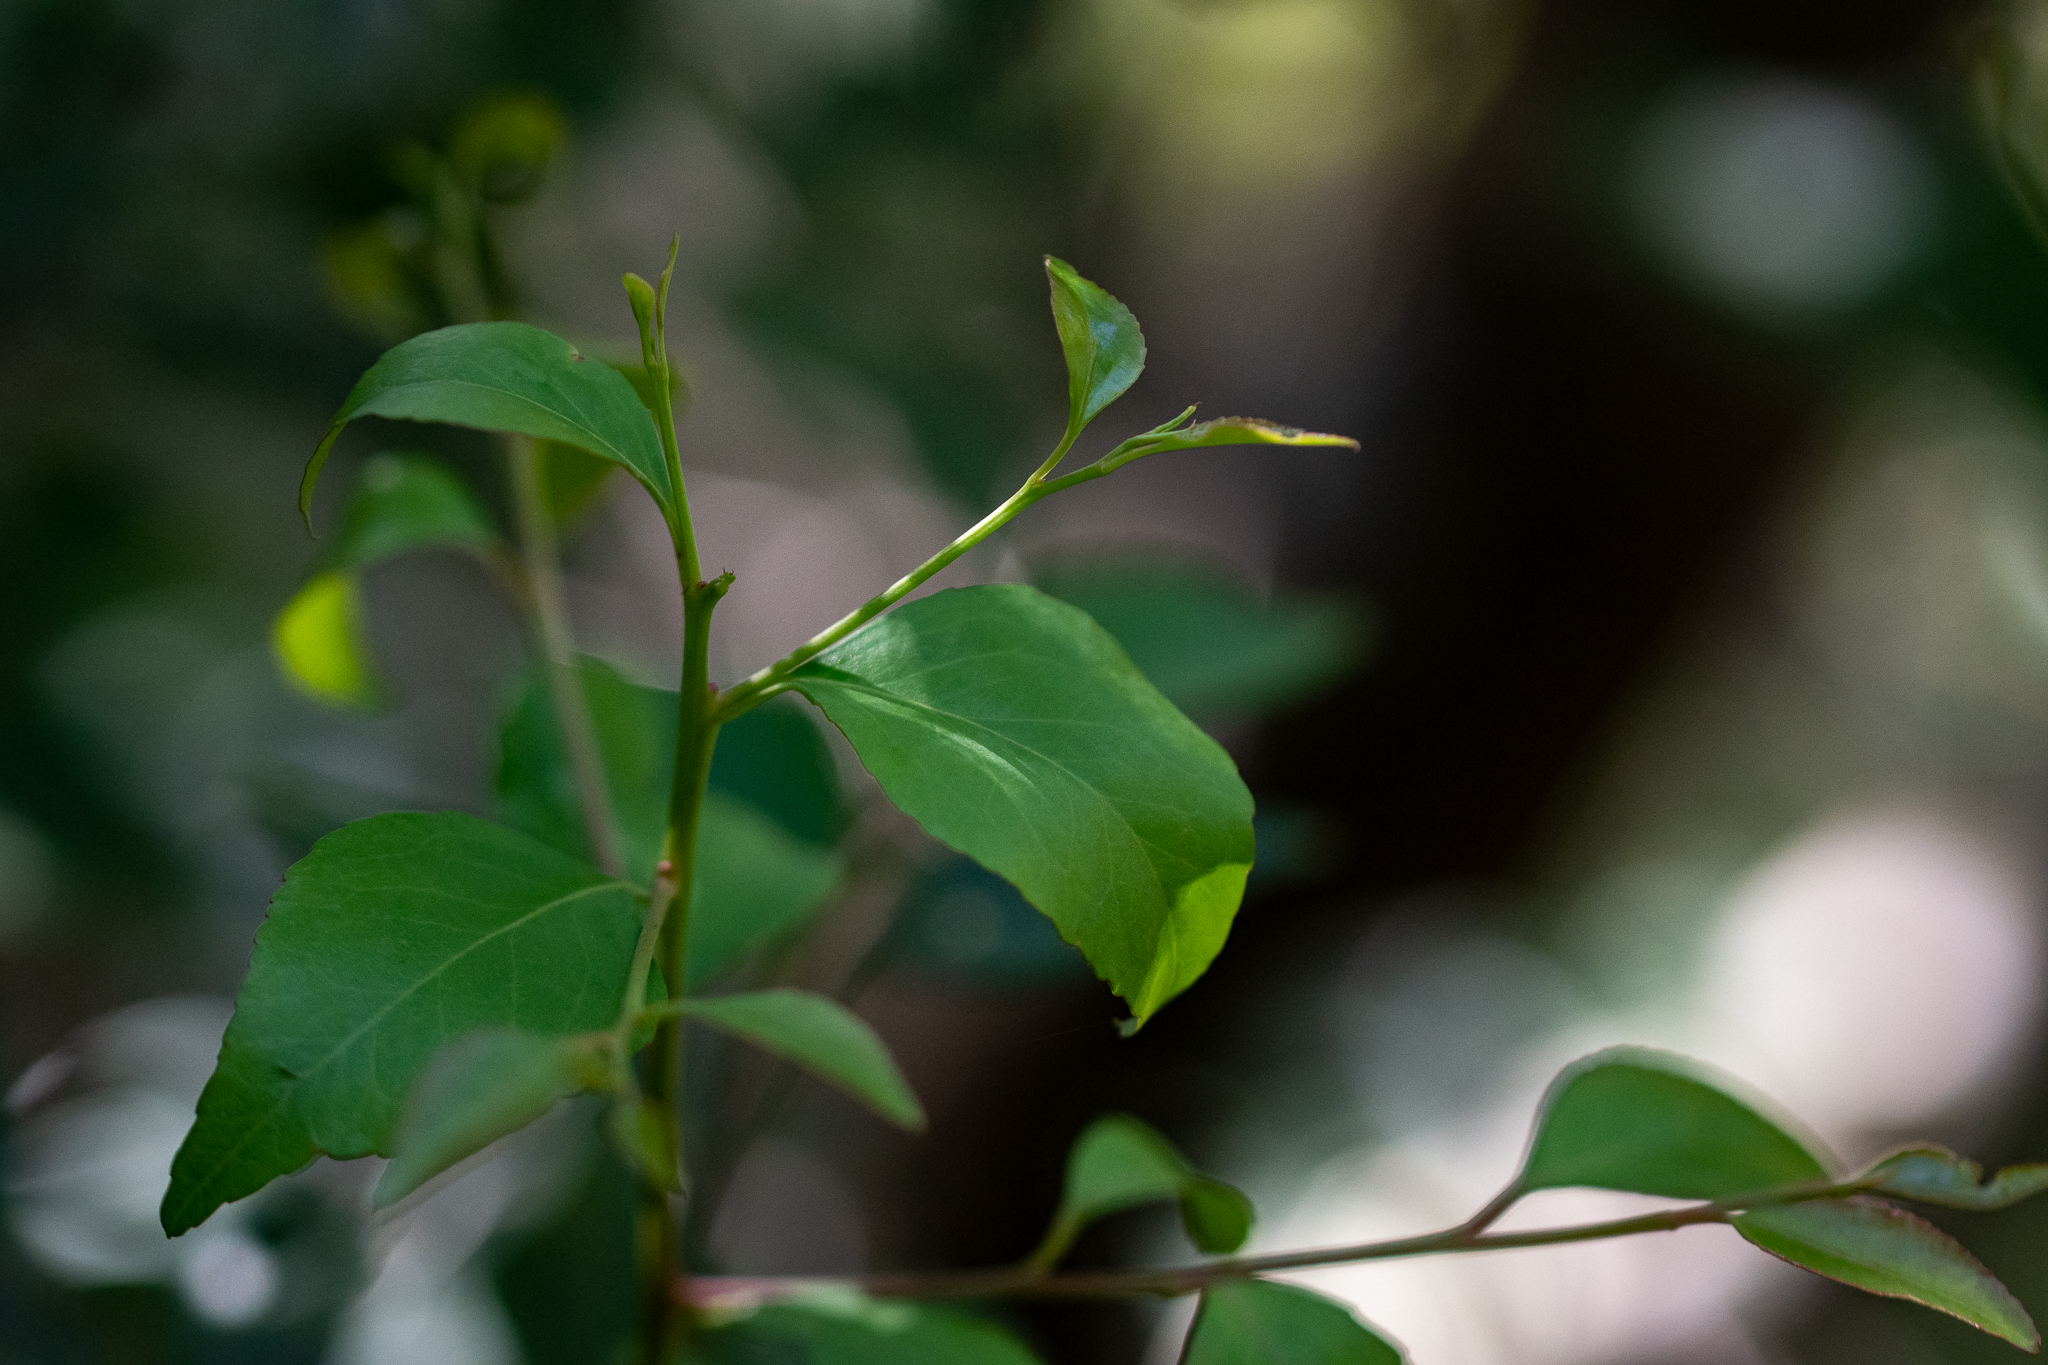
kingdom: Plantae
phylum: Tracheophyta
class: Magnoliopsida
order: Celastrales
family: Celastraceae
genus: Gymnosporia
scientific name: Gymnosporia acuminata
